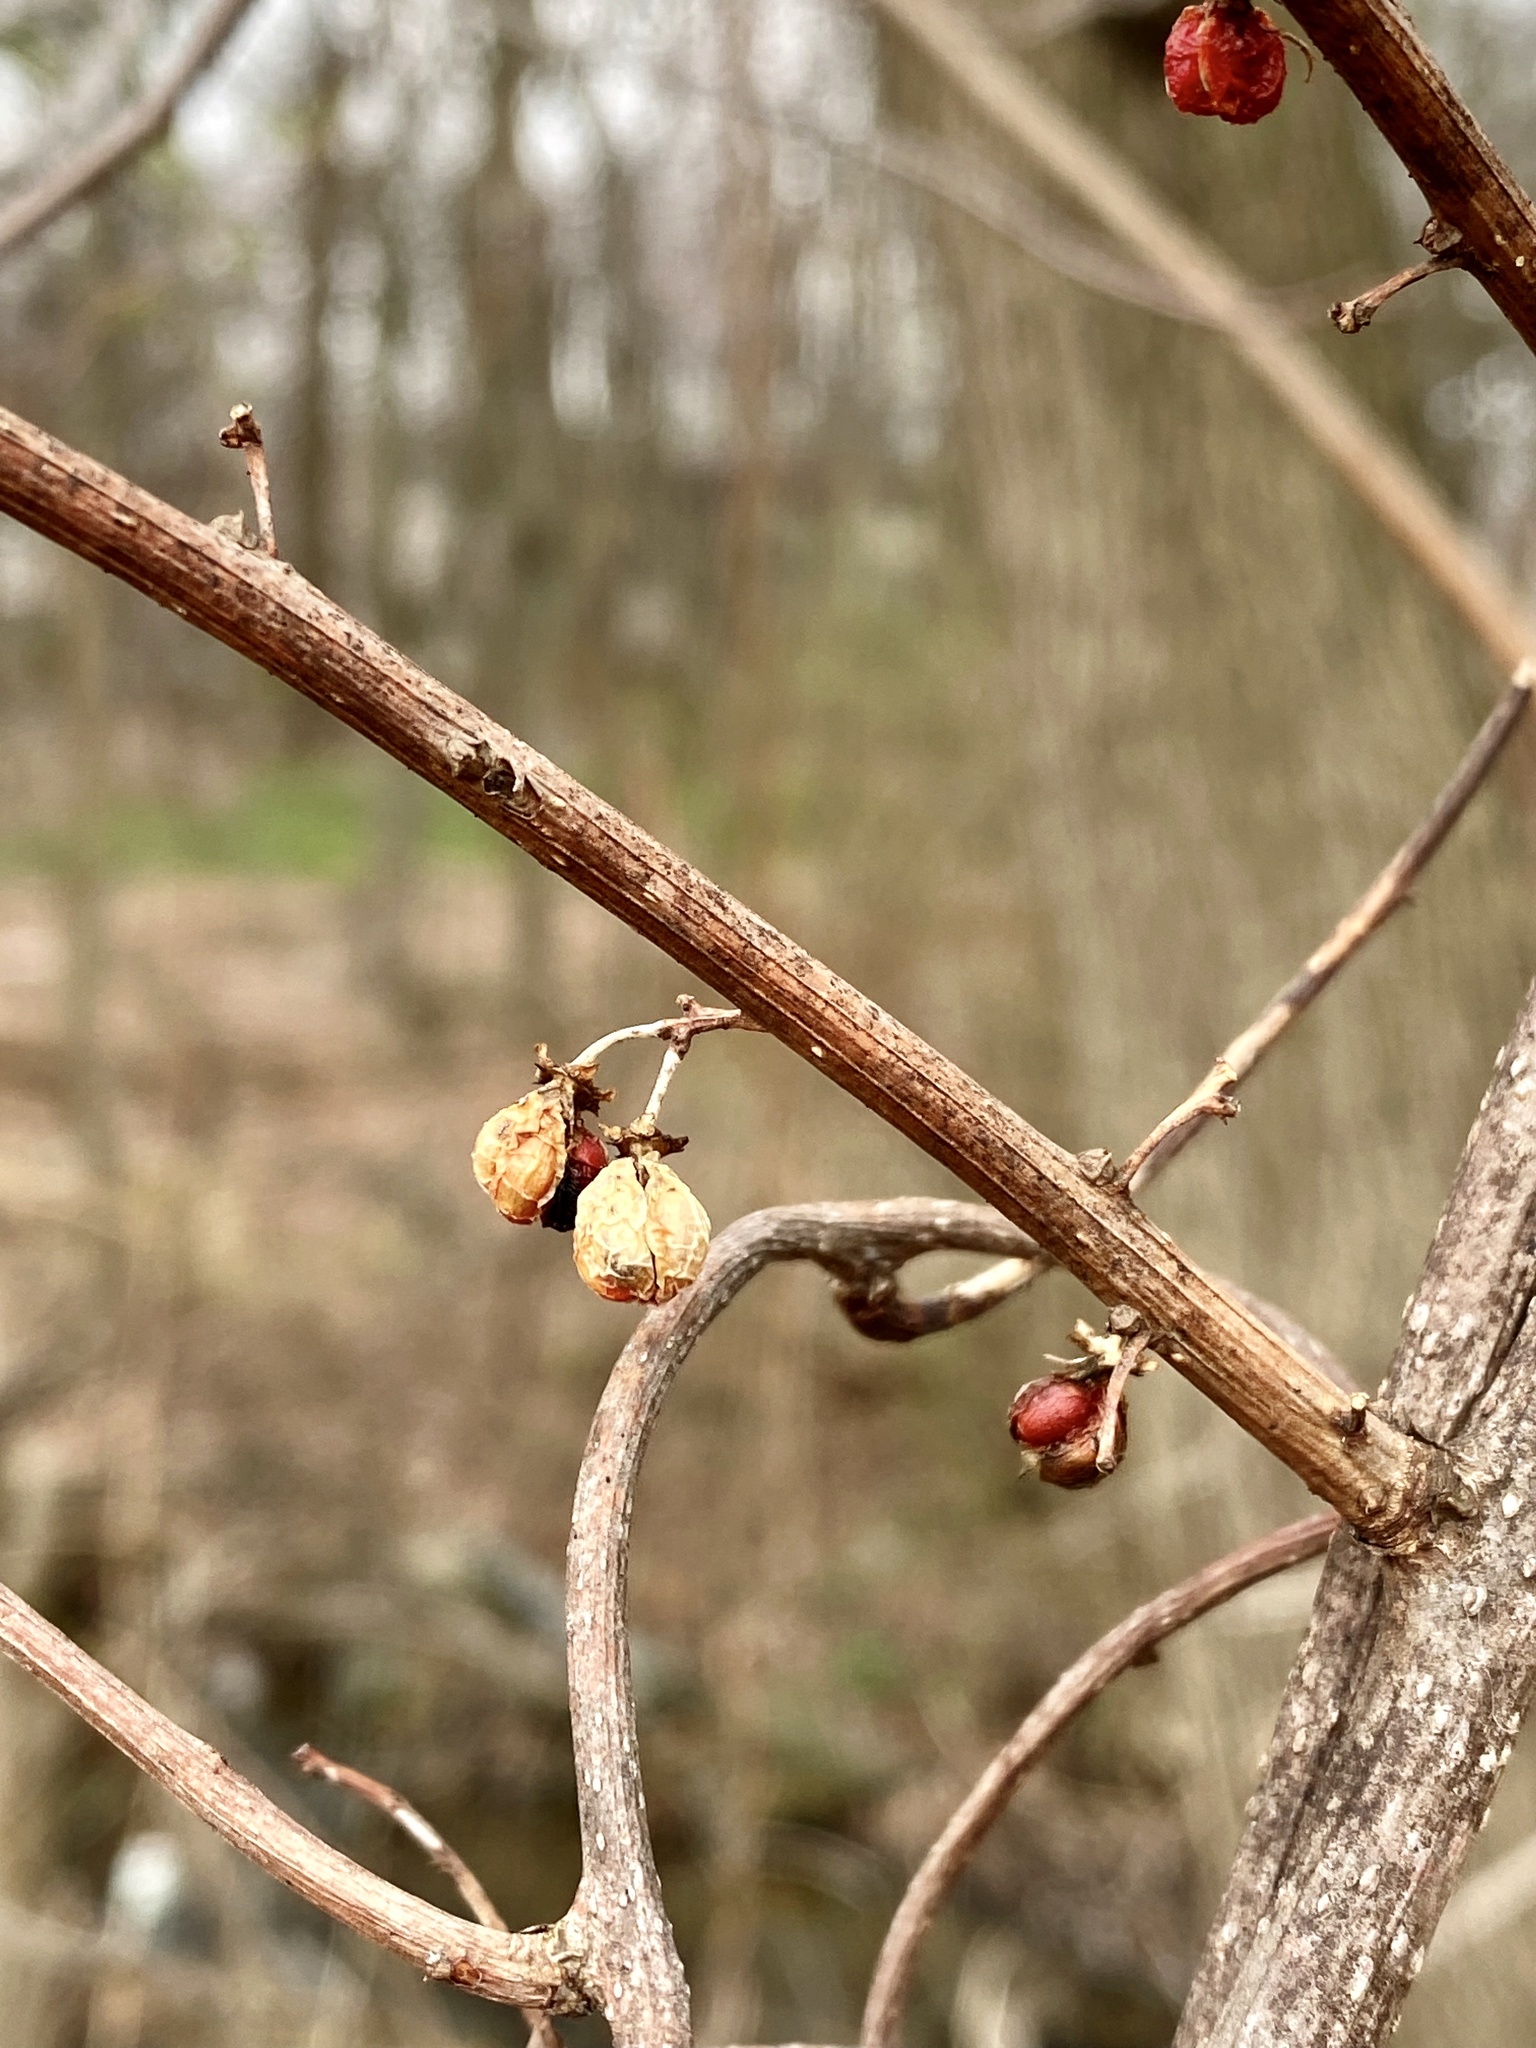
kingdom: Plantae
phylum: Tracheophyta
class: Magnoliopsida
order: Celastrales
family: Celastraceae
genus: Celastrus
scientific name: Celastrus orbiculatus
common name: Oriental bittersweet
